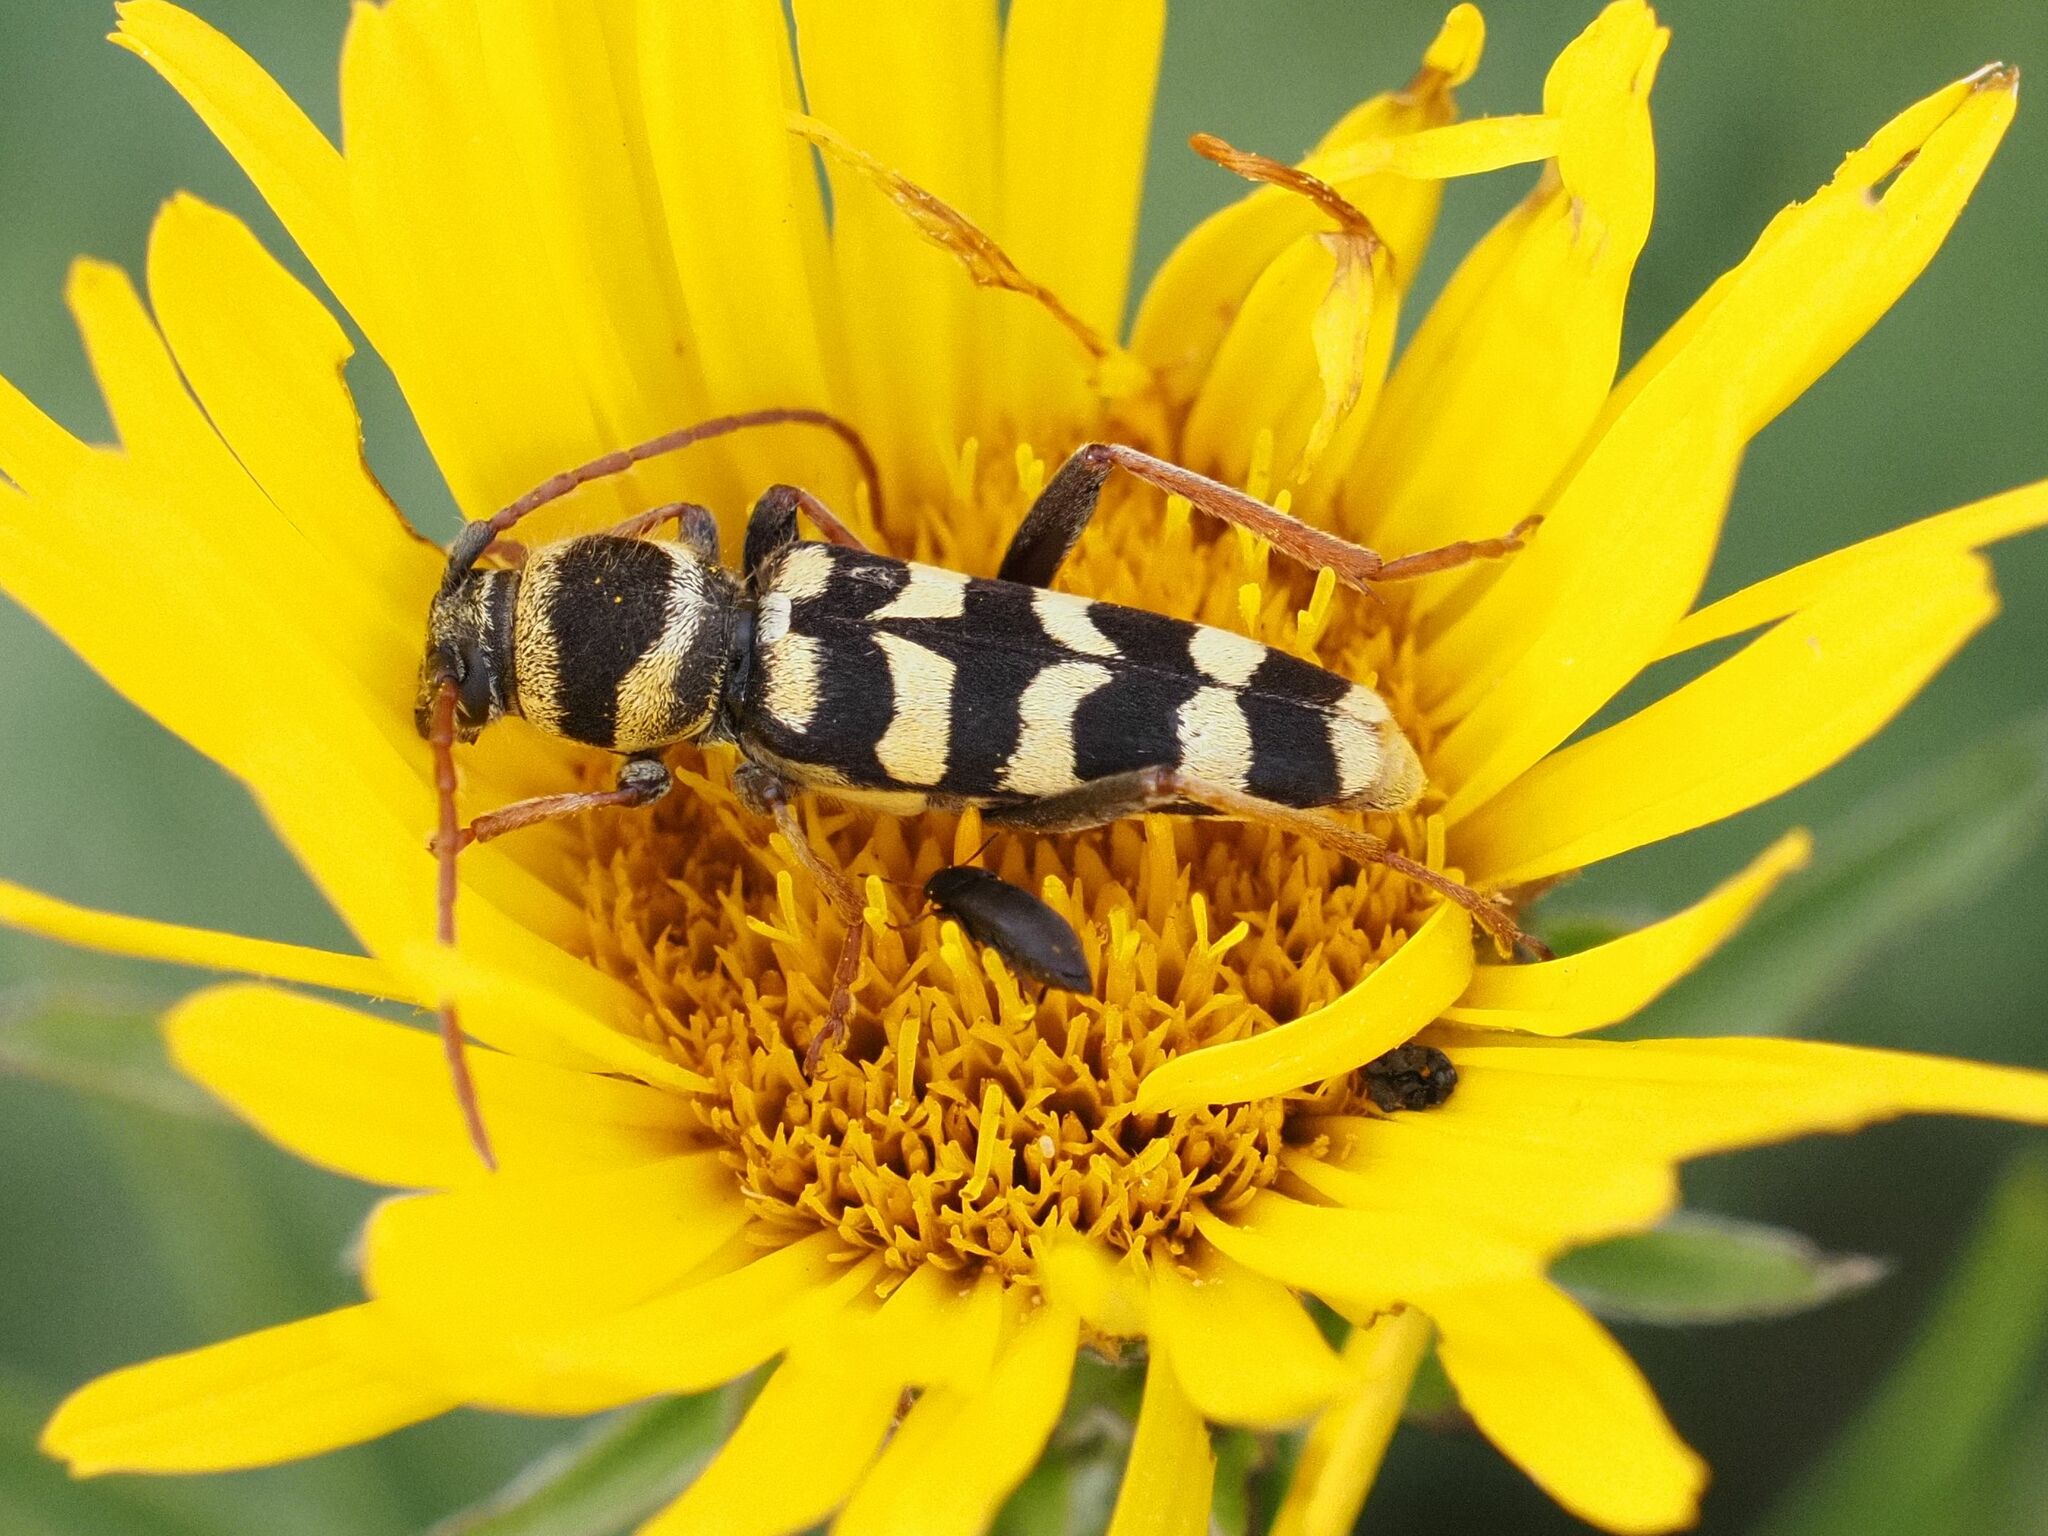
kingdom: Animalia
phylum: Arthropoda
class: Insecta
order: Coleoptera
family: Cerambycidae
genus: Plagionotus
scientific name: Plagionotus floralis
